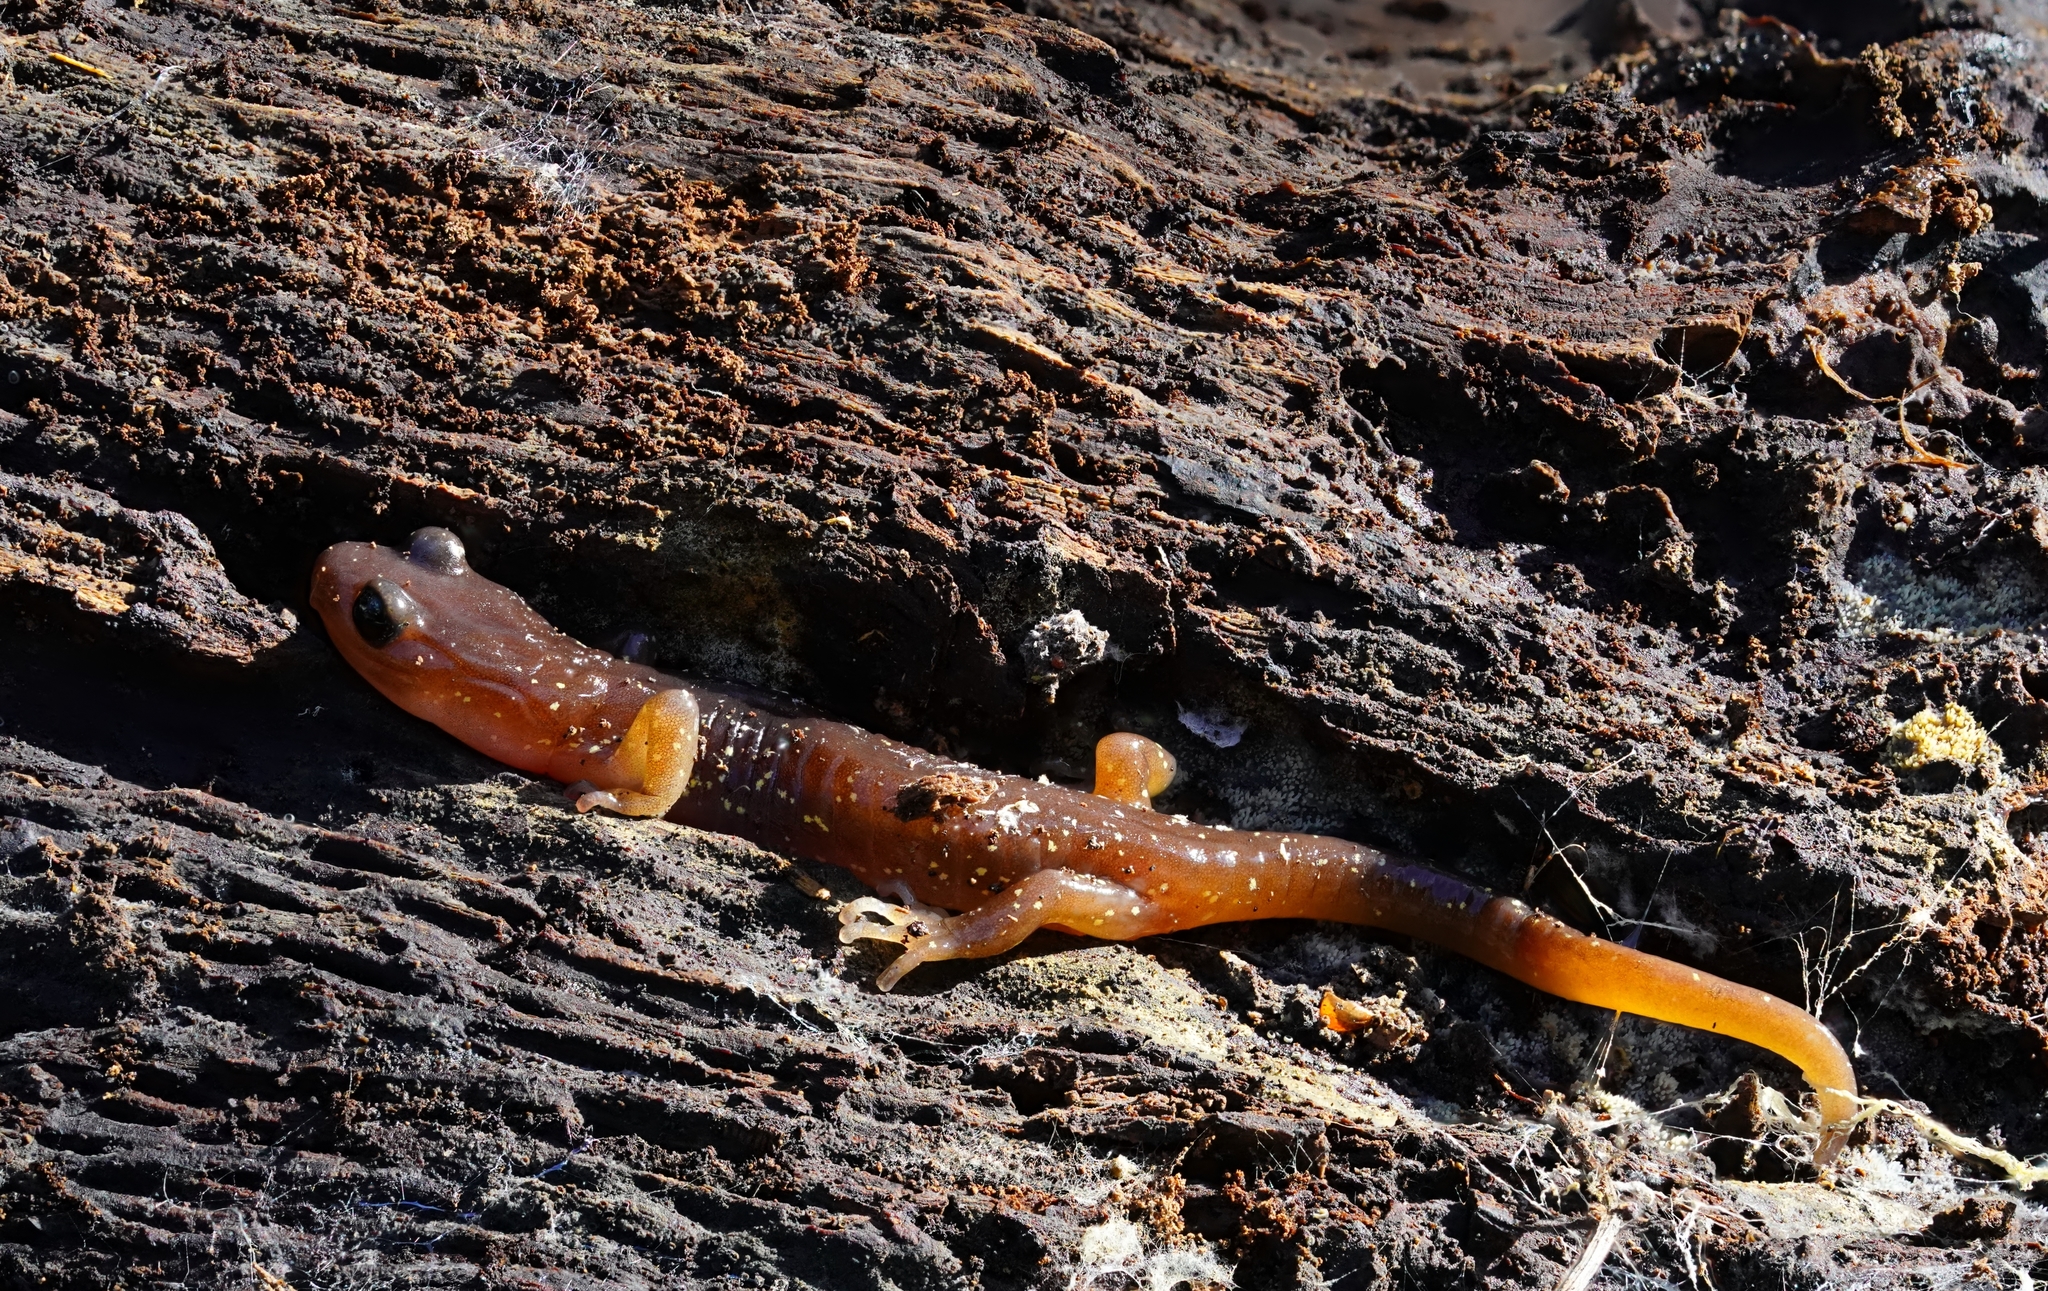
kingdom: Animalia
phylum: Chordata
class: Amphibia
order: Caudata
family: Plethodontidae
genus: Aneides
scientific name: Aneides lugubris
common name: Arboreal salamander
